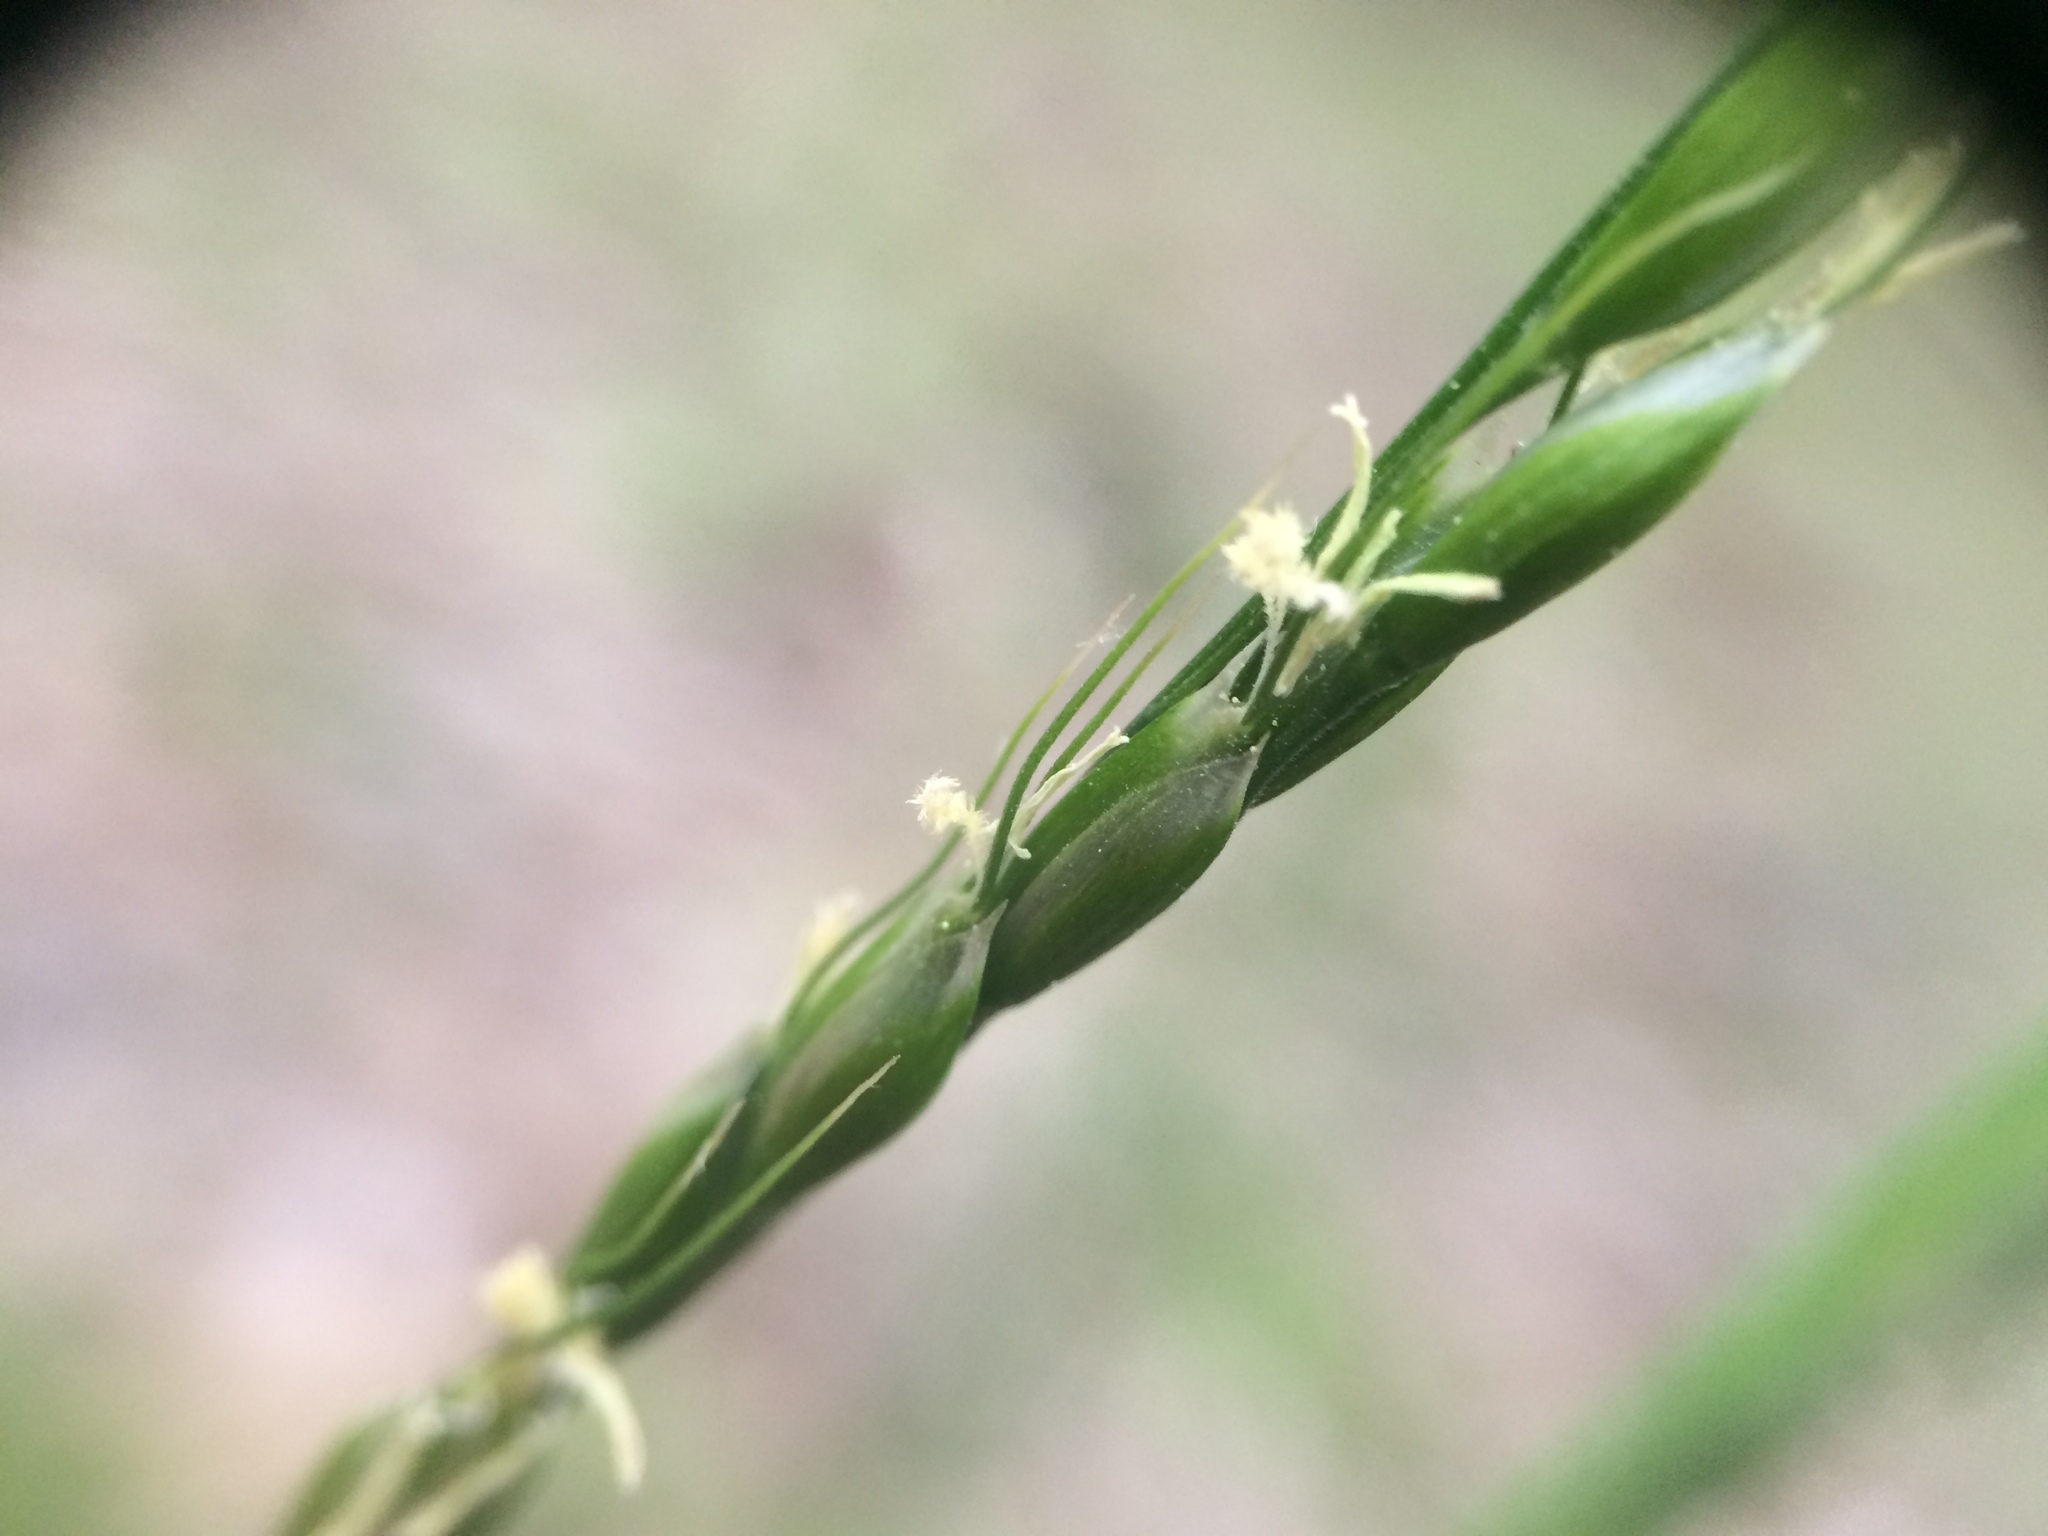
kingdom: Plantae
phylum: Tracheophyta
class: Liliopsida
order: Poales
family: Poaceae
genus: Oryzopsis
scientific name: Oryzopsis asperifolia
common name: Rough-leaved mountain rice
